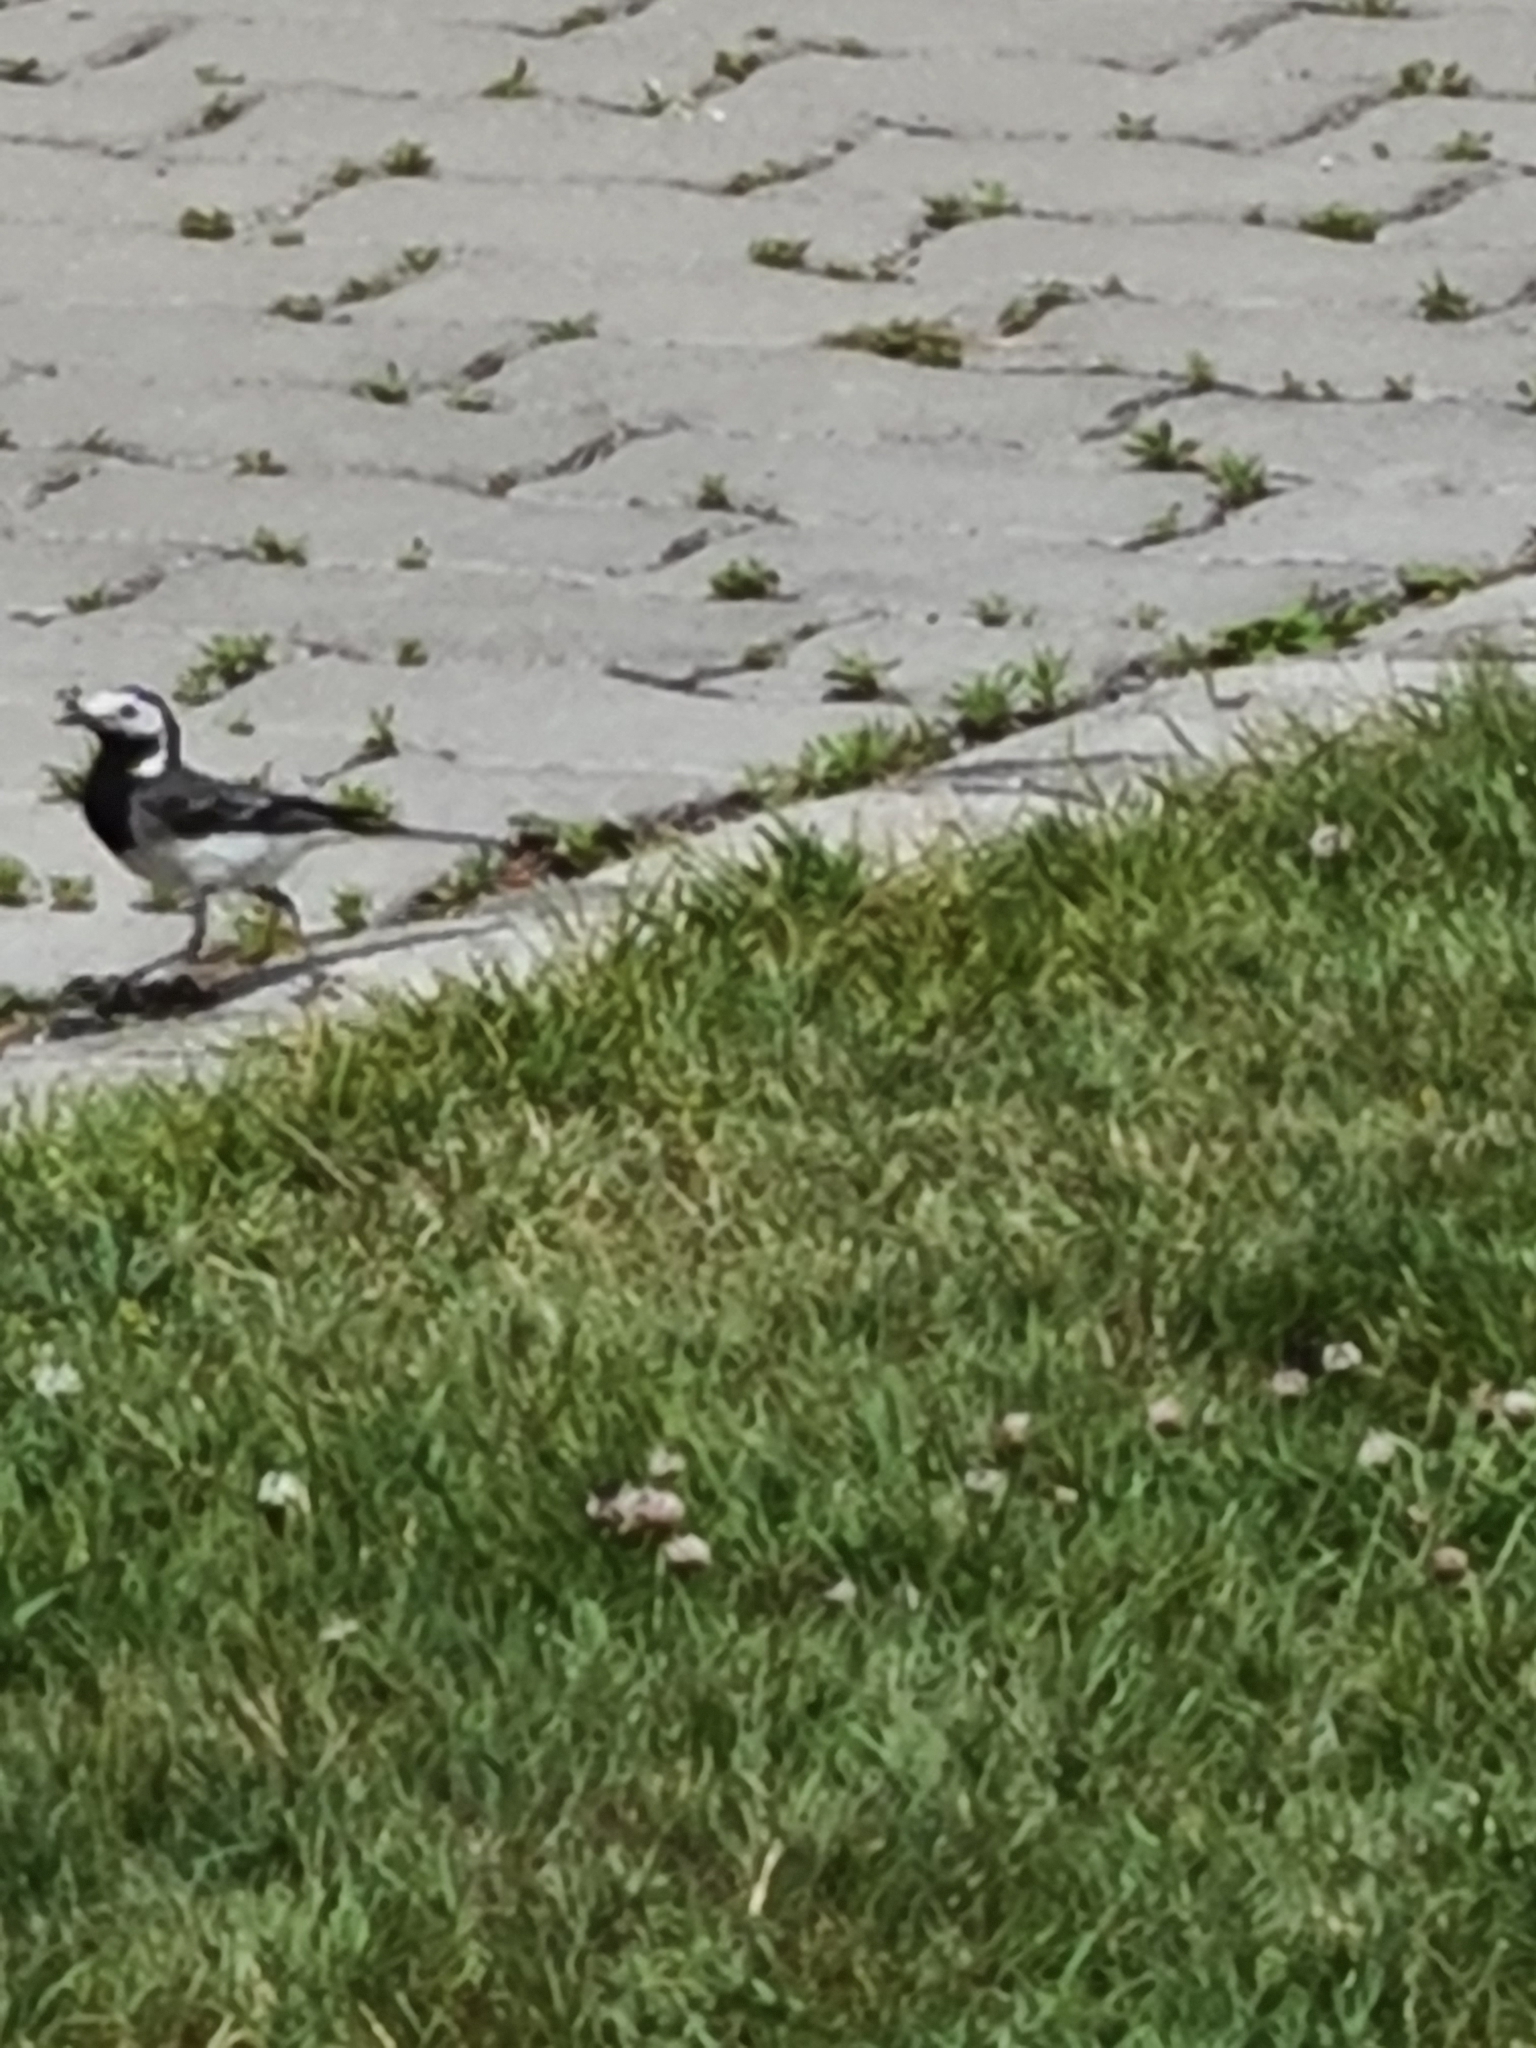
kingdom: Animalia
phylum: Chordata
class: Aves
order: Passeriformes
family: Motacillidae
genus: Motacilla
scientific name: Motacilla alba
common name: White wagtail
